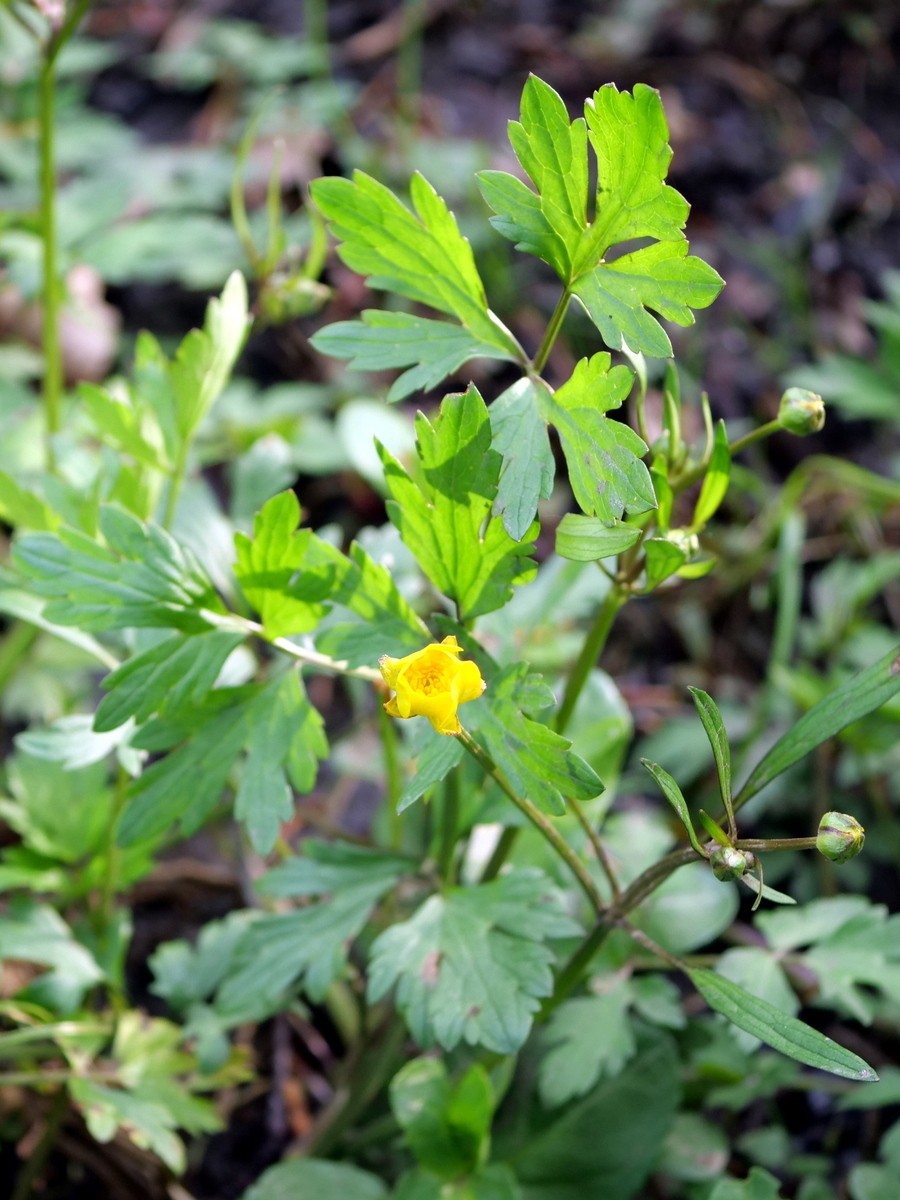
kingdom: Plantae
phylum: Tracheophyta
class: Magnoliopsida
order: Ranunculales
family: Ranunculaceae
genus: Ranunculus
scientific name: Ranunculus repens
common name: Creeping buttercup
